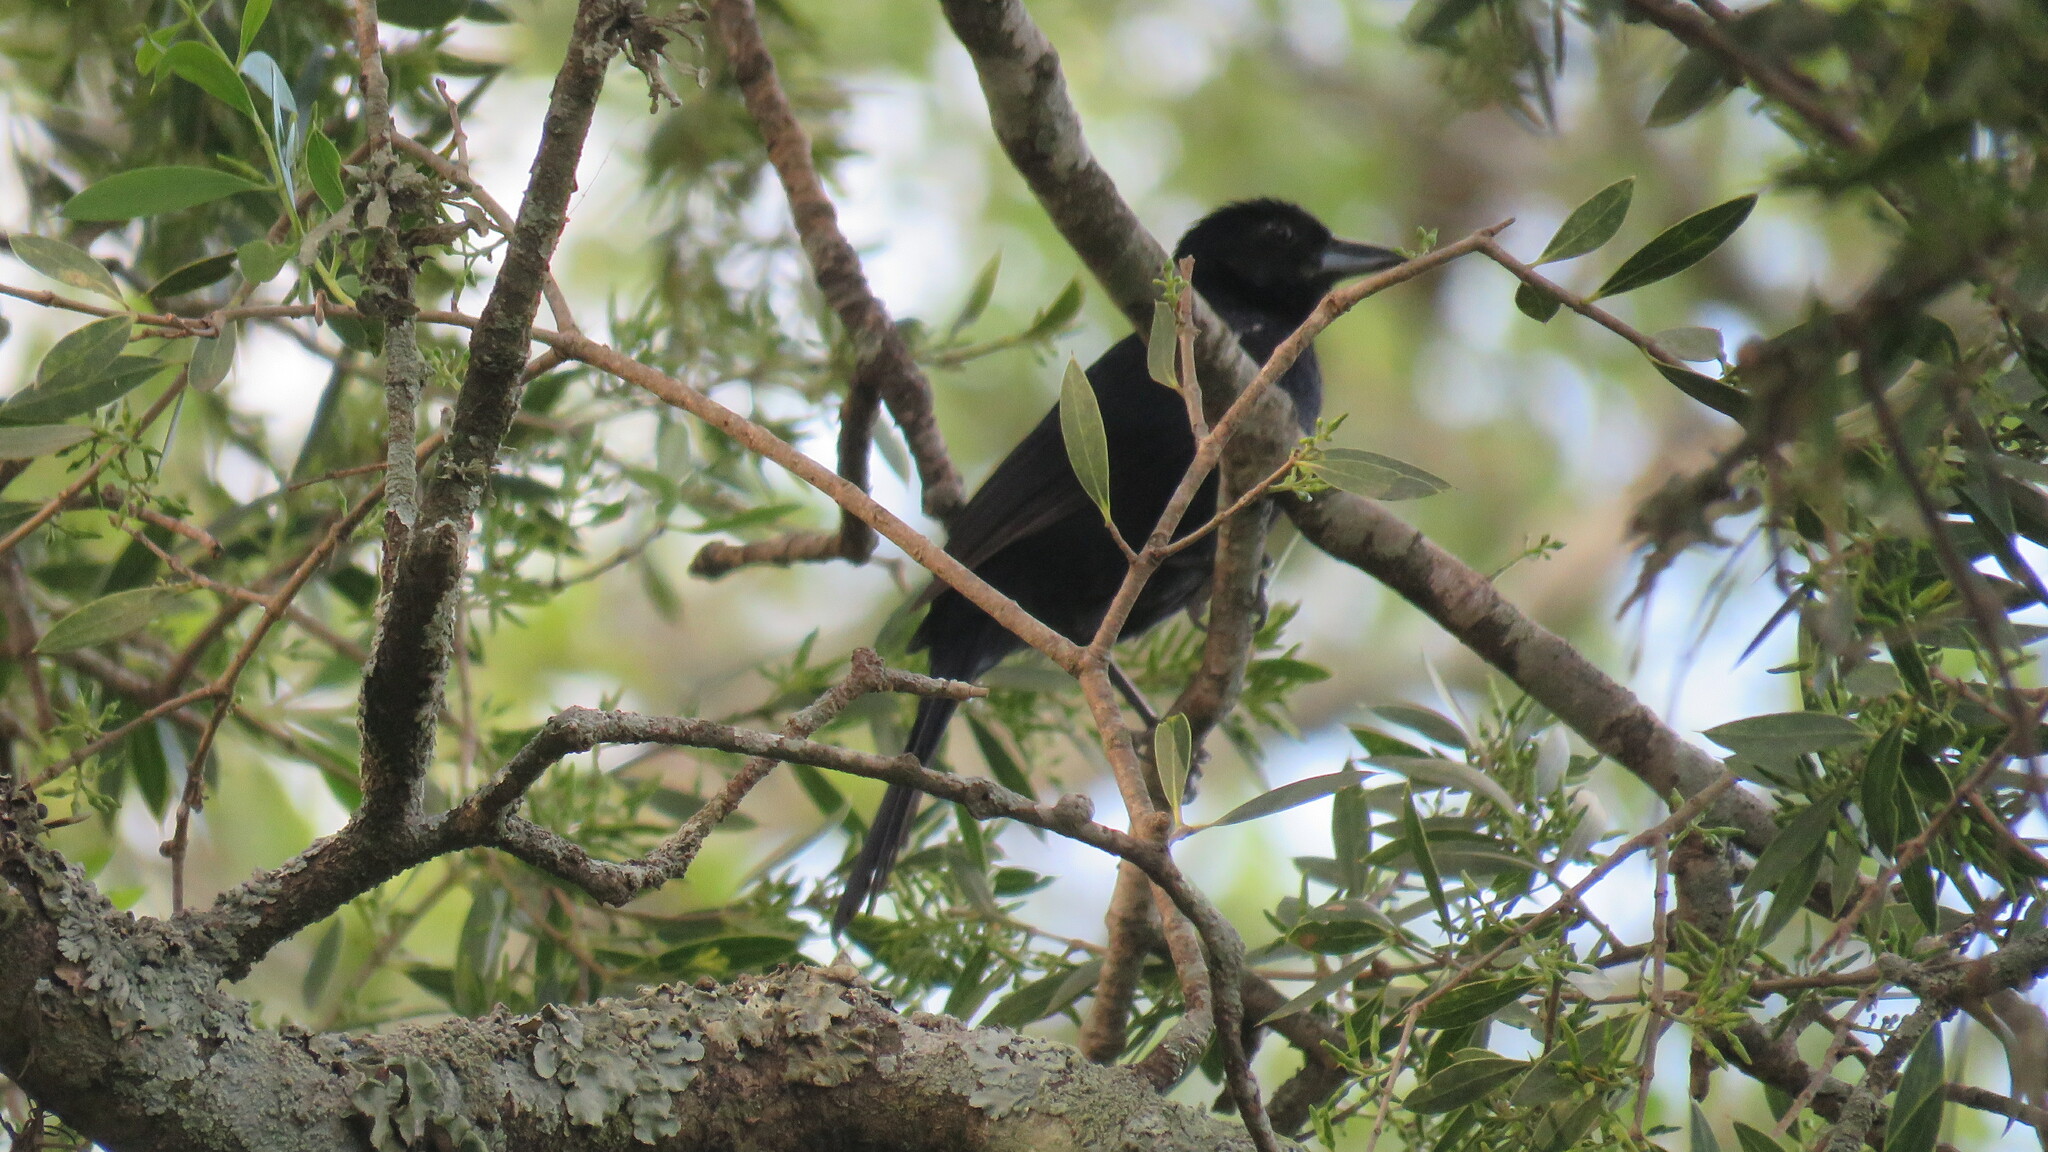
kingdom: Animalia
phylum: Chordata
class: Aves
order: Passeriformes
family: Thraupidae
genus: Tachyphonus
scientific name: Tachyphonus rufus
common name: White-lined tanager
